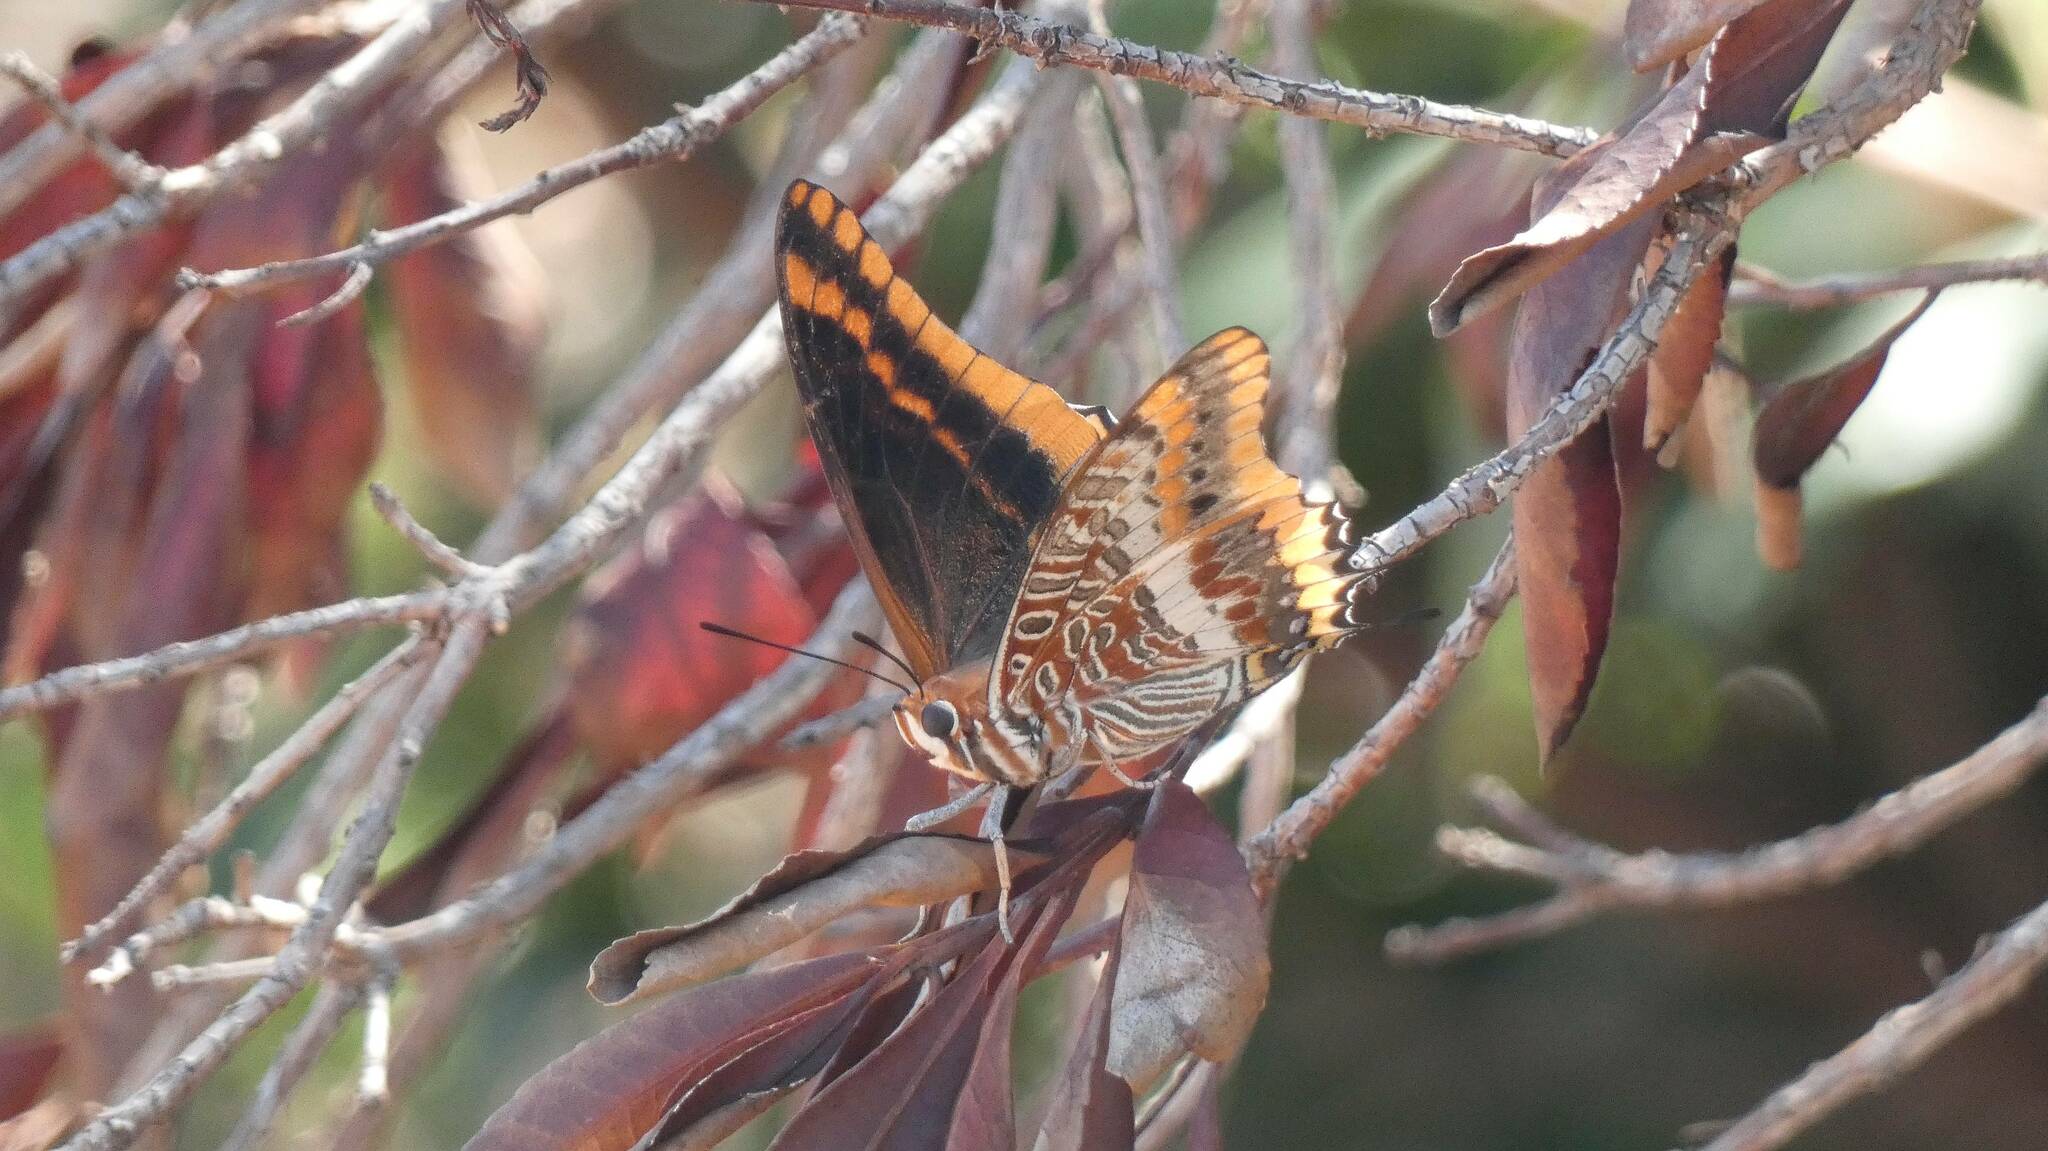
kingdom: Animalia
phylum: Arthropoda
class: Insecta
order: Lepidoptera
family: Nymphalidae
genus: Charaxes
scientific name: Charaxes jasius
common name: Two tailed pasha
